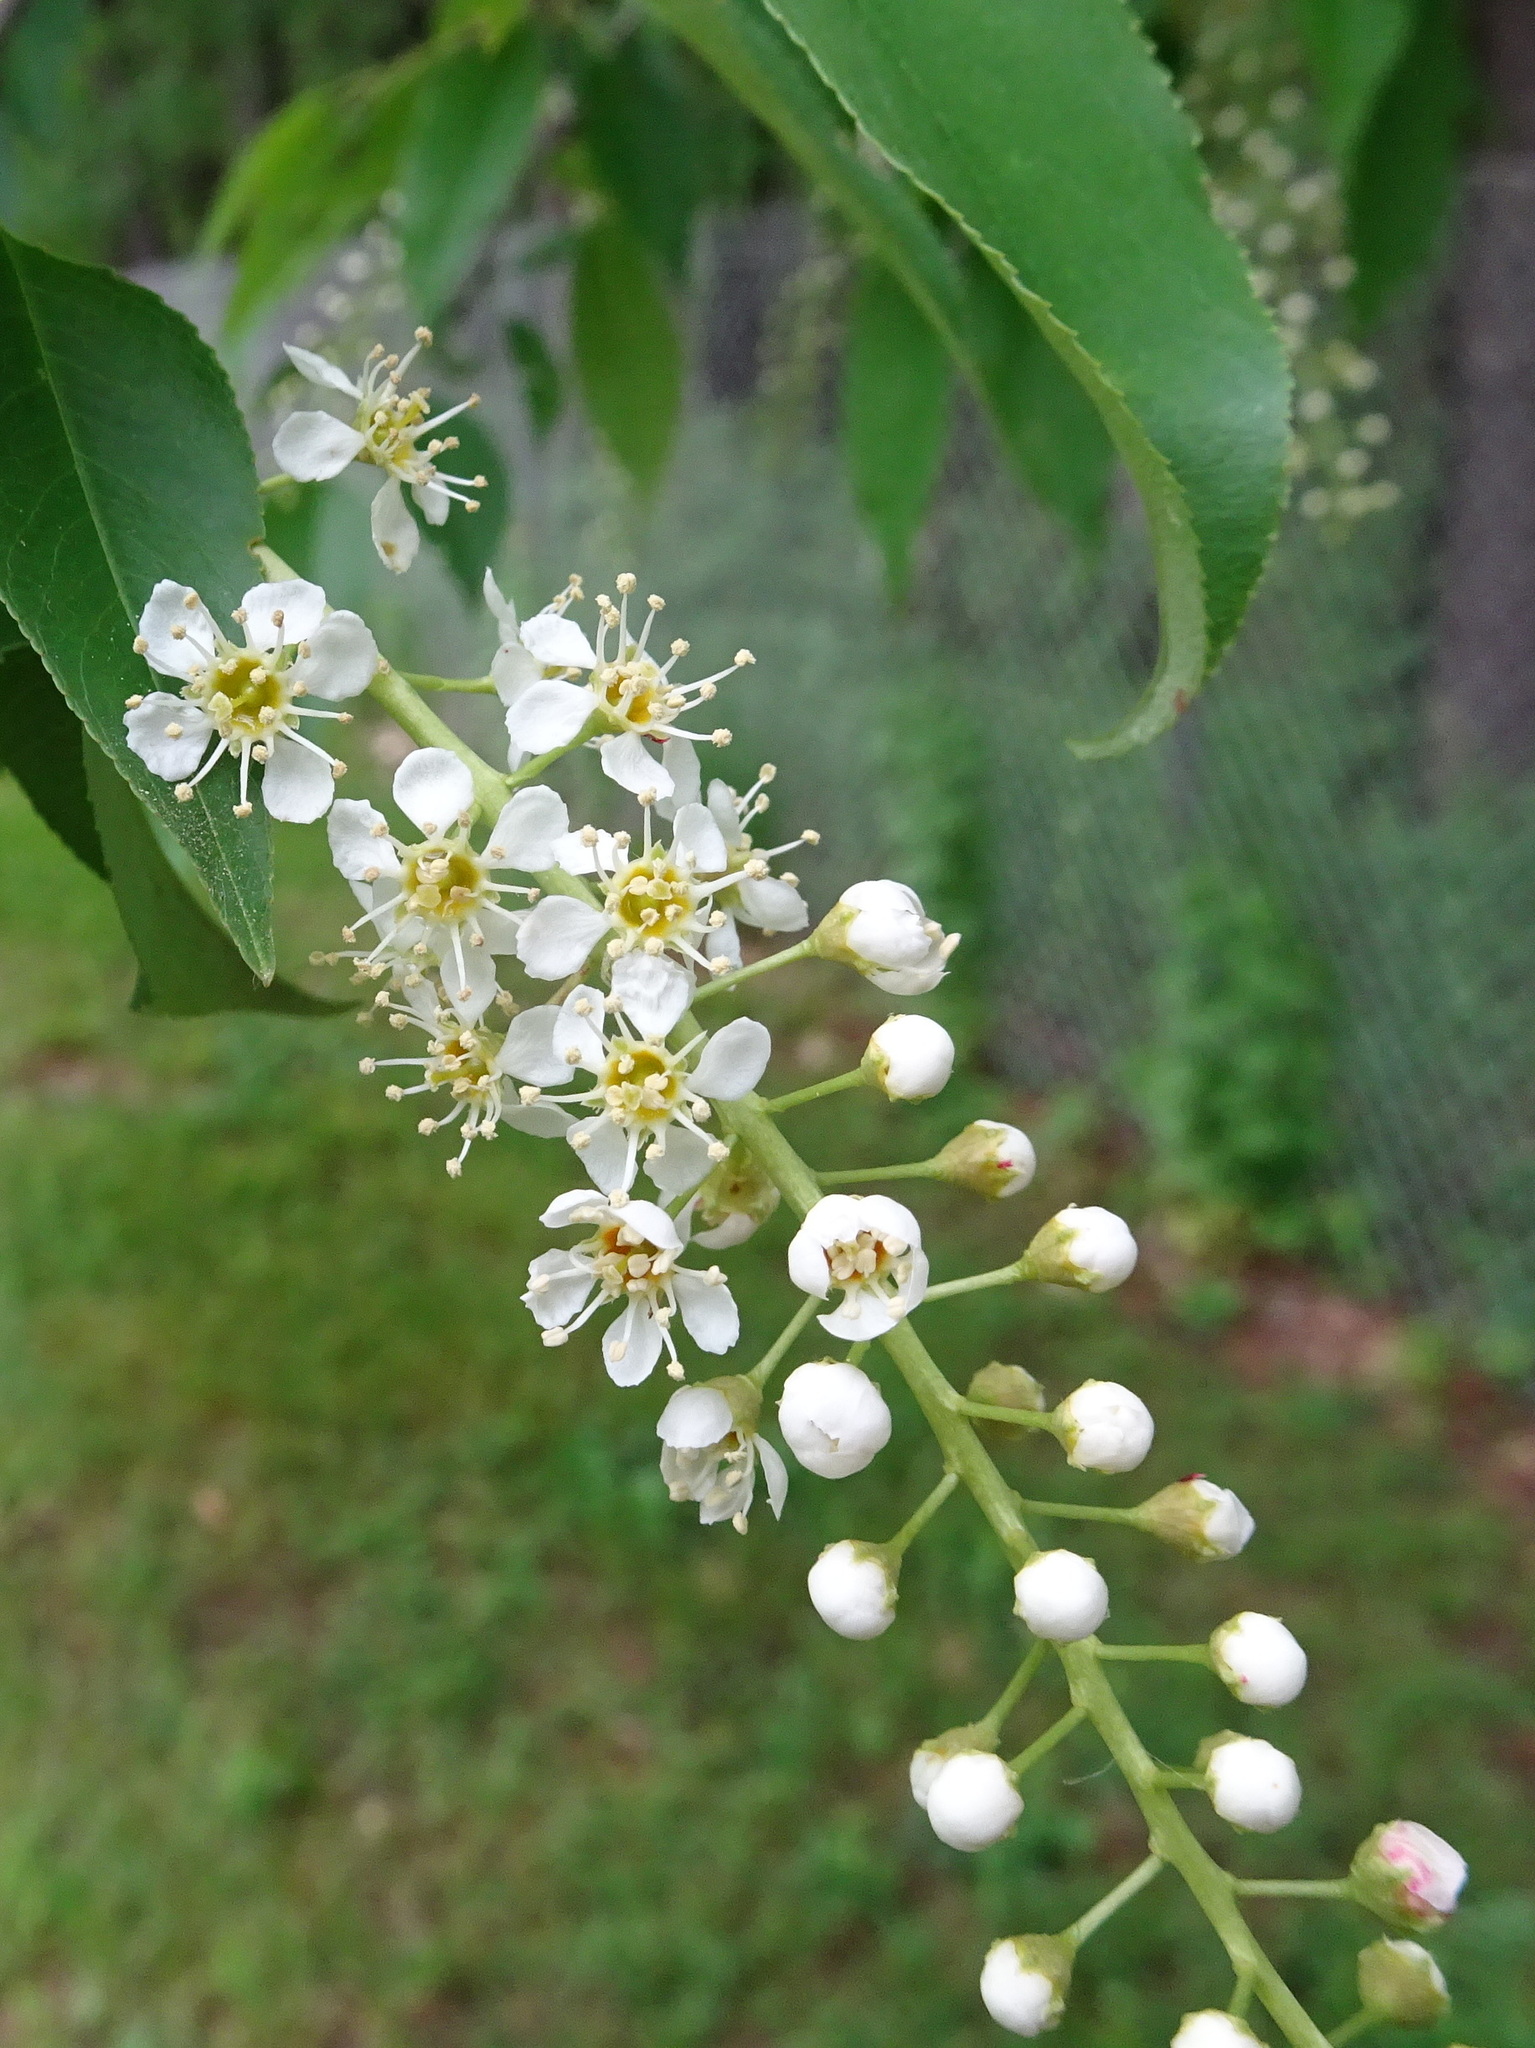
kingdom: Plantae
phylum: Tracheophyta
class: Magnoliopsida
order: Rosales
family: Rosaceae
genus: Prunus
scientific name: Prunus serotina
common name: Black cherry
